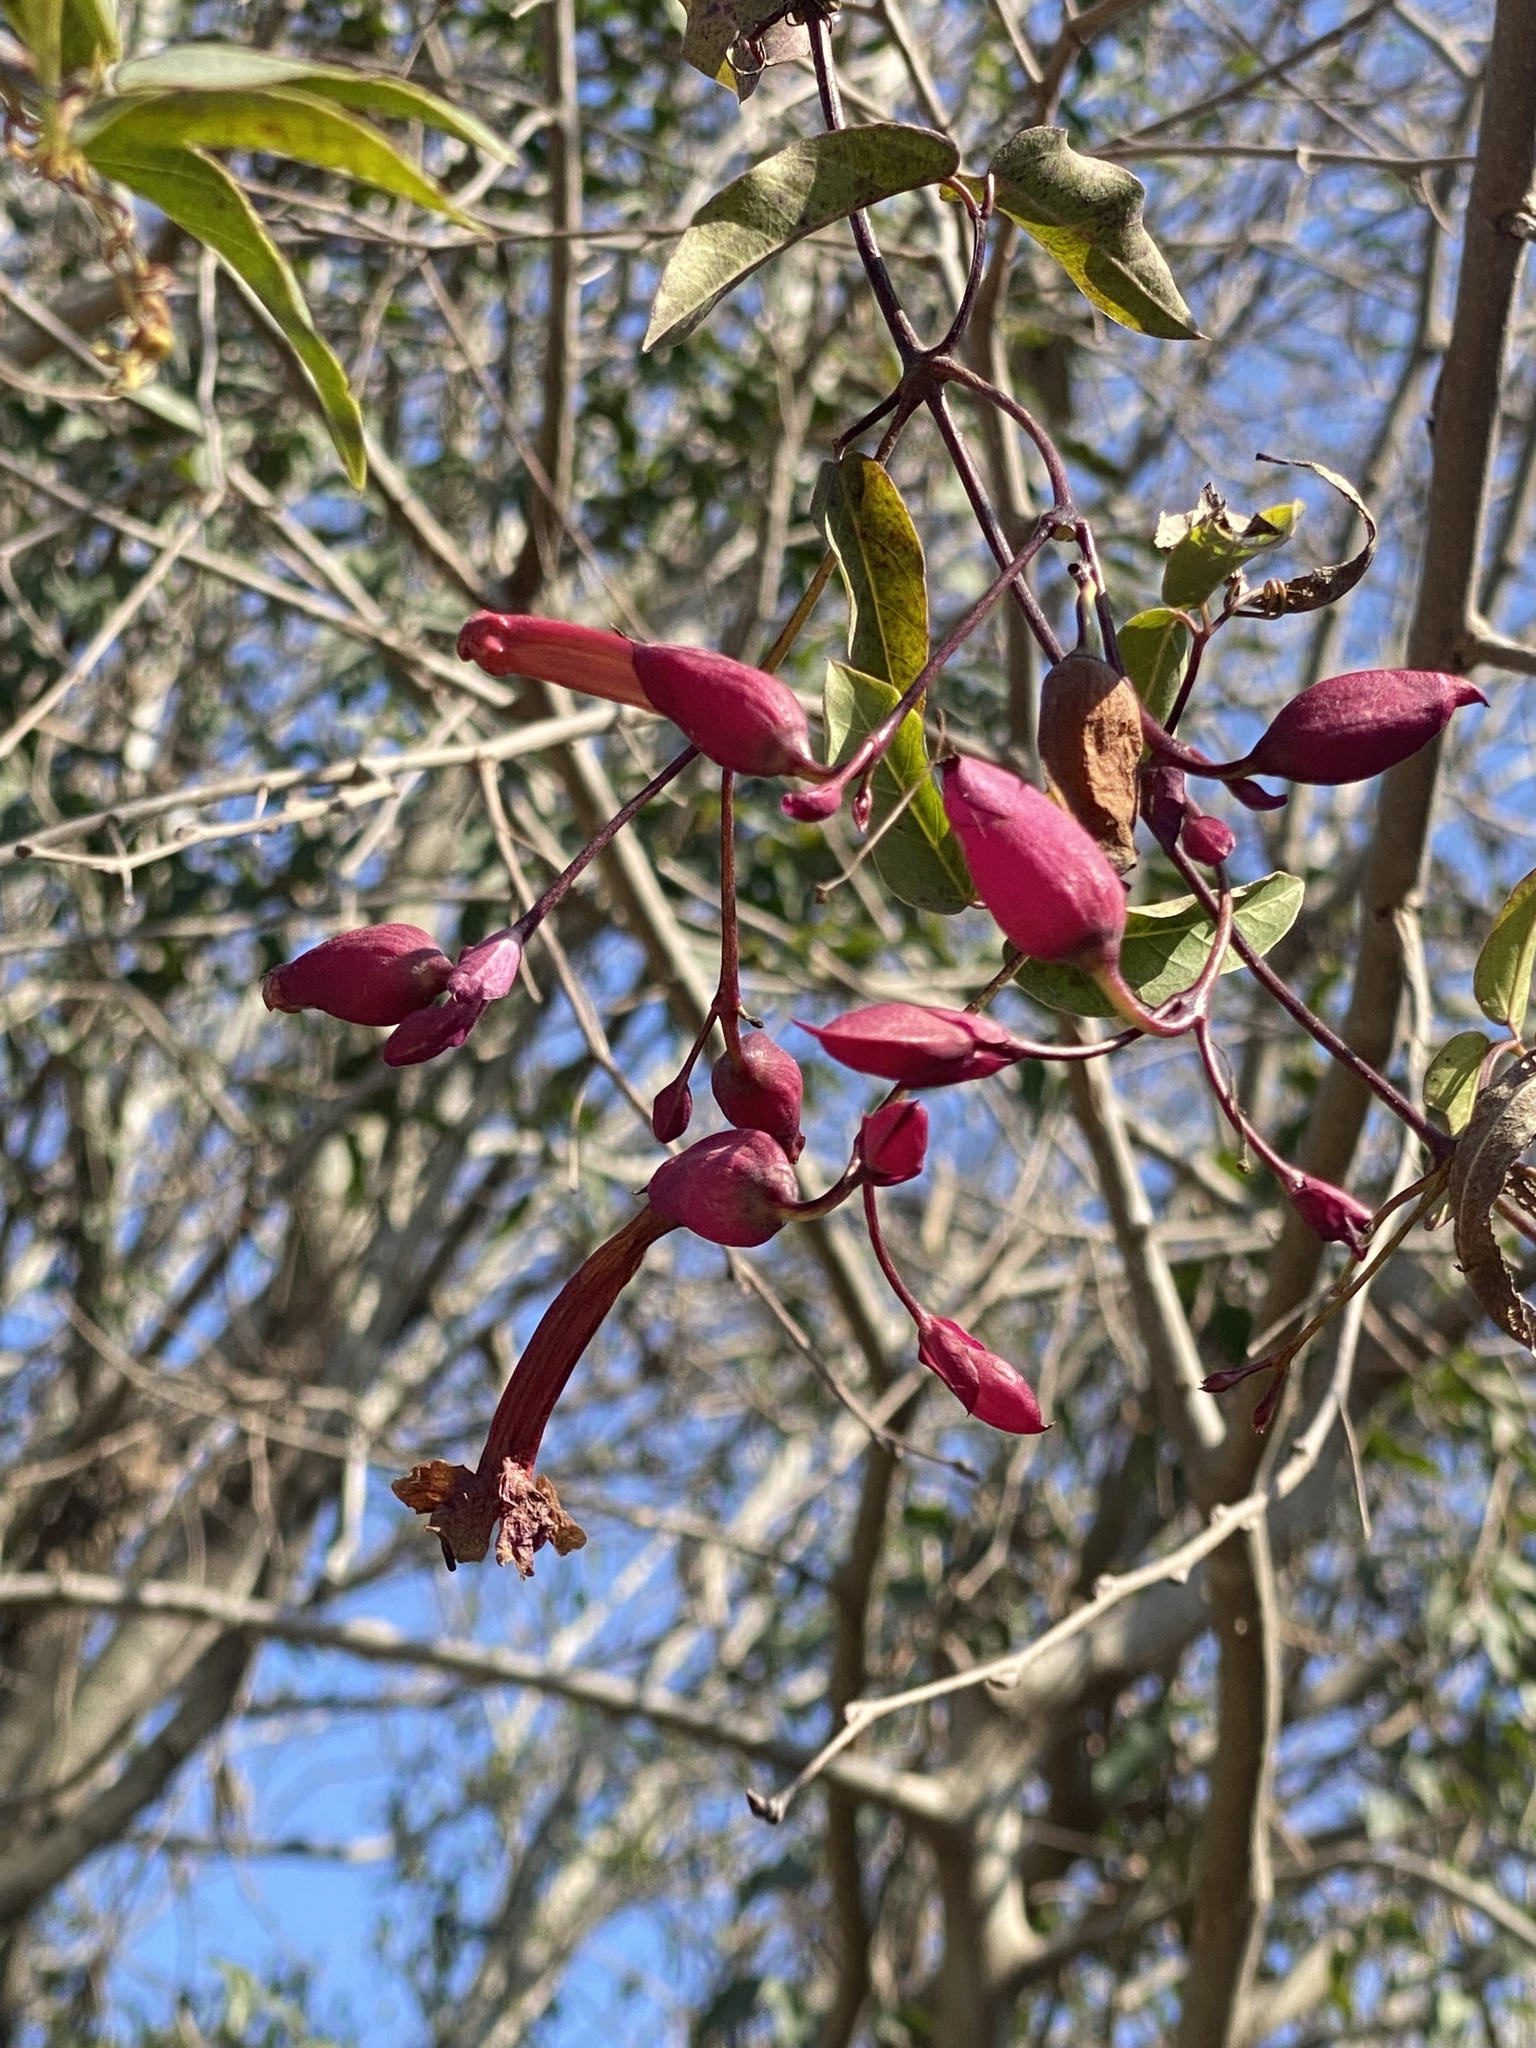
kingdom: Plantae
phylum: Tracheophyta
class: Magnoliopsida
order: Lamiales
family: Bignoniaceae
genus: Dolichandra
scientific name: Dolichandra cynanchoides
